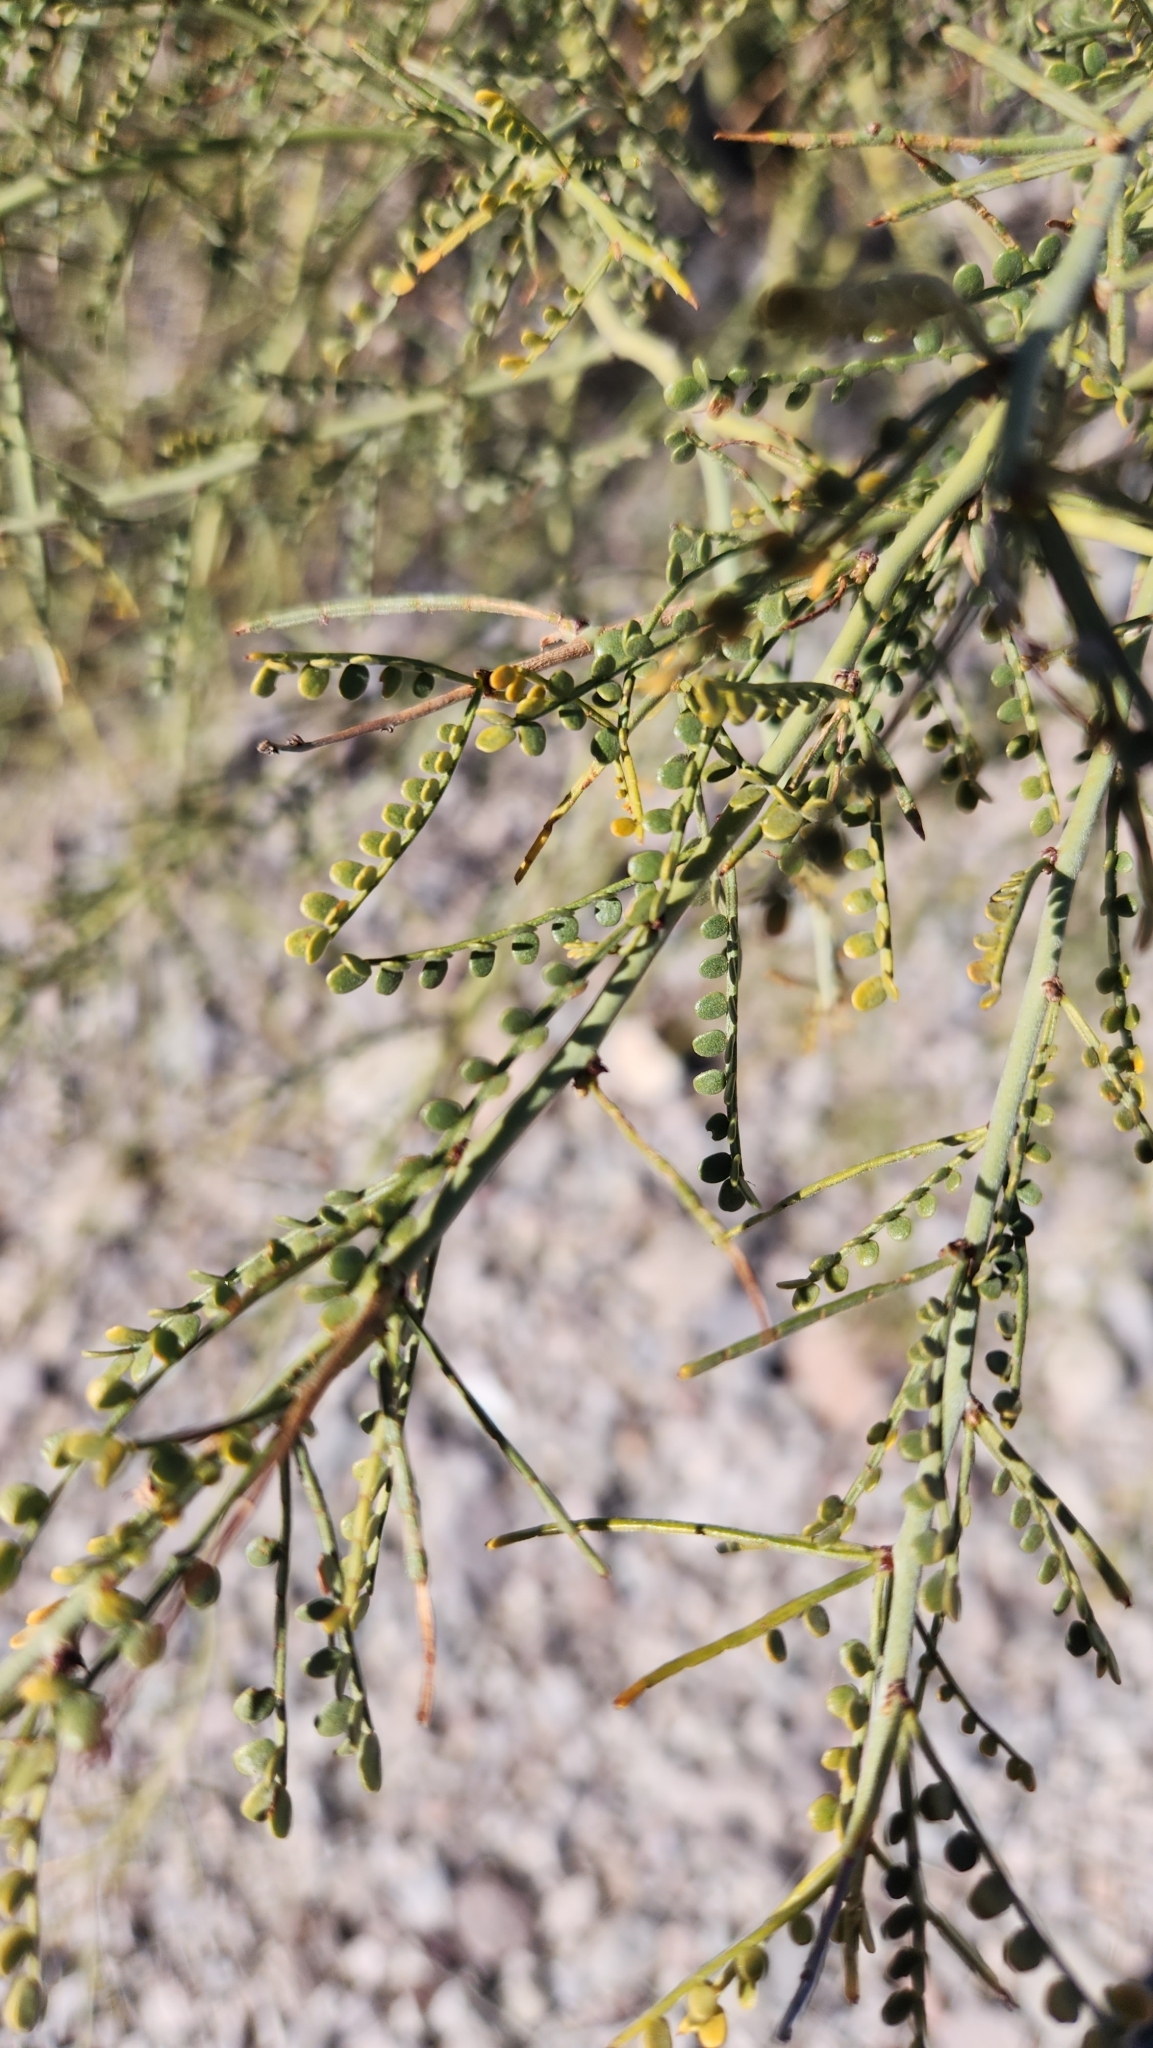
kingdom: Plantae
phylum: Tracheophyta
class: Magnoliopsida
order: Fabales
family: Fabaceae
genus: Parkinsonia
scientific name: Parkinsonia microphylla
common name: Yellow paloverde
